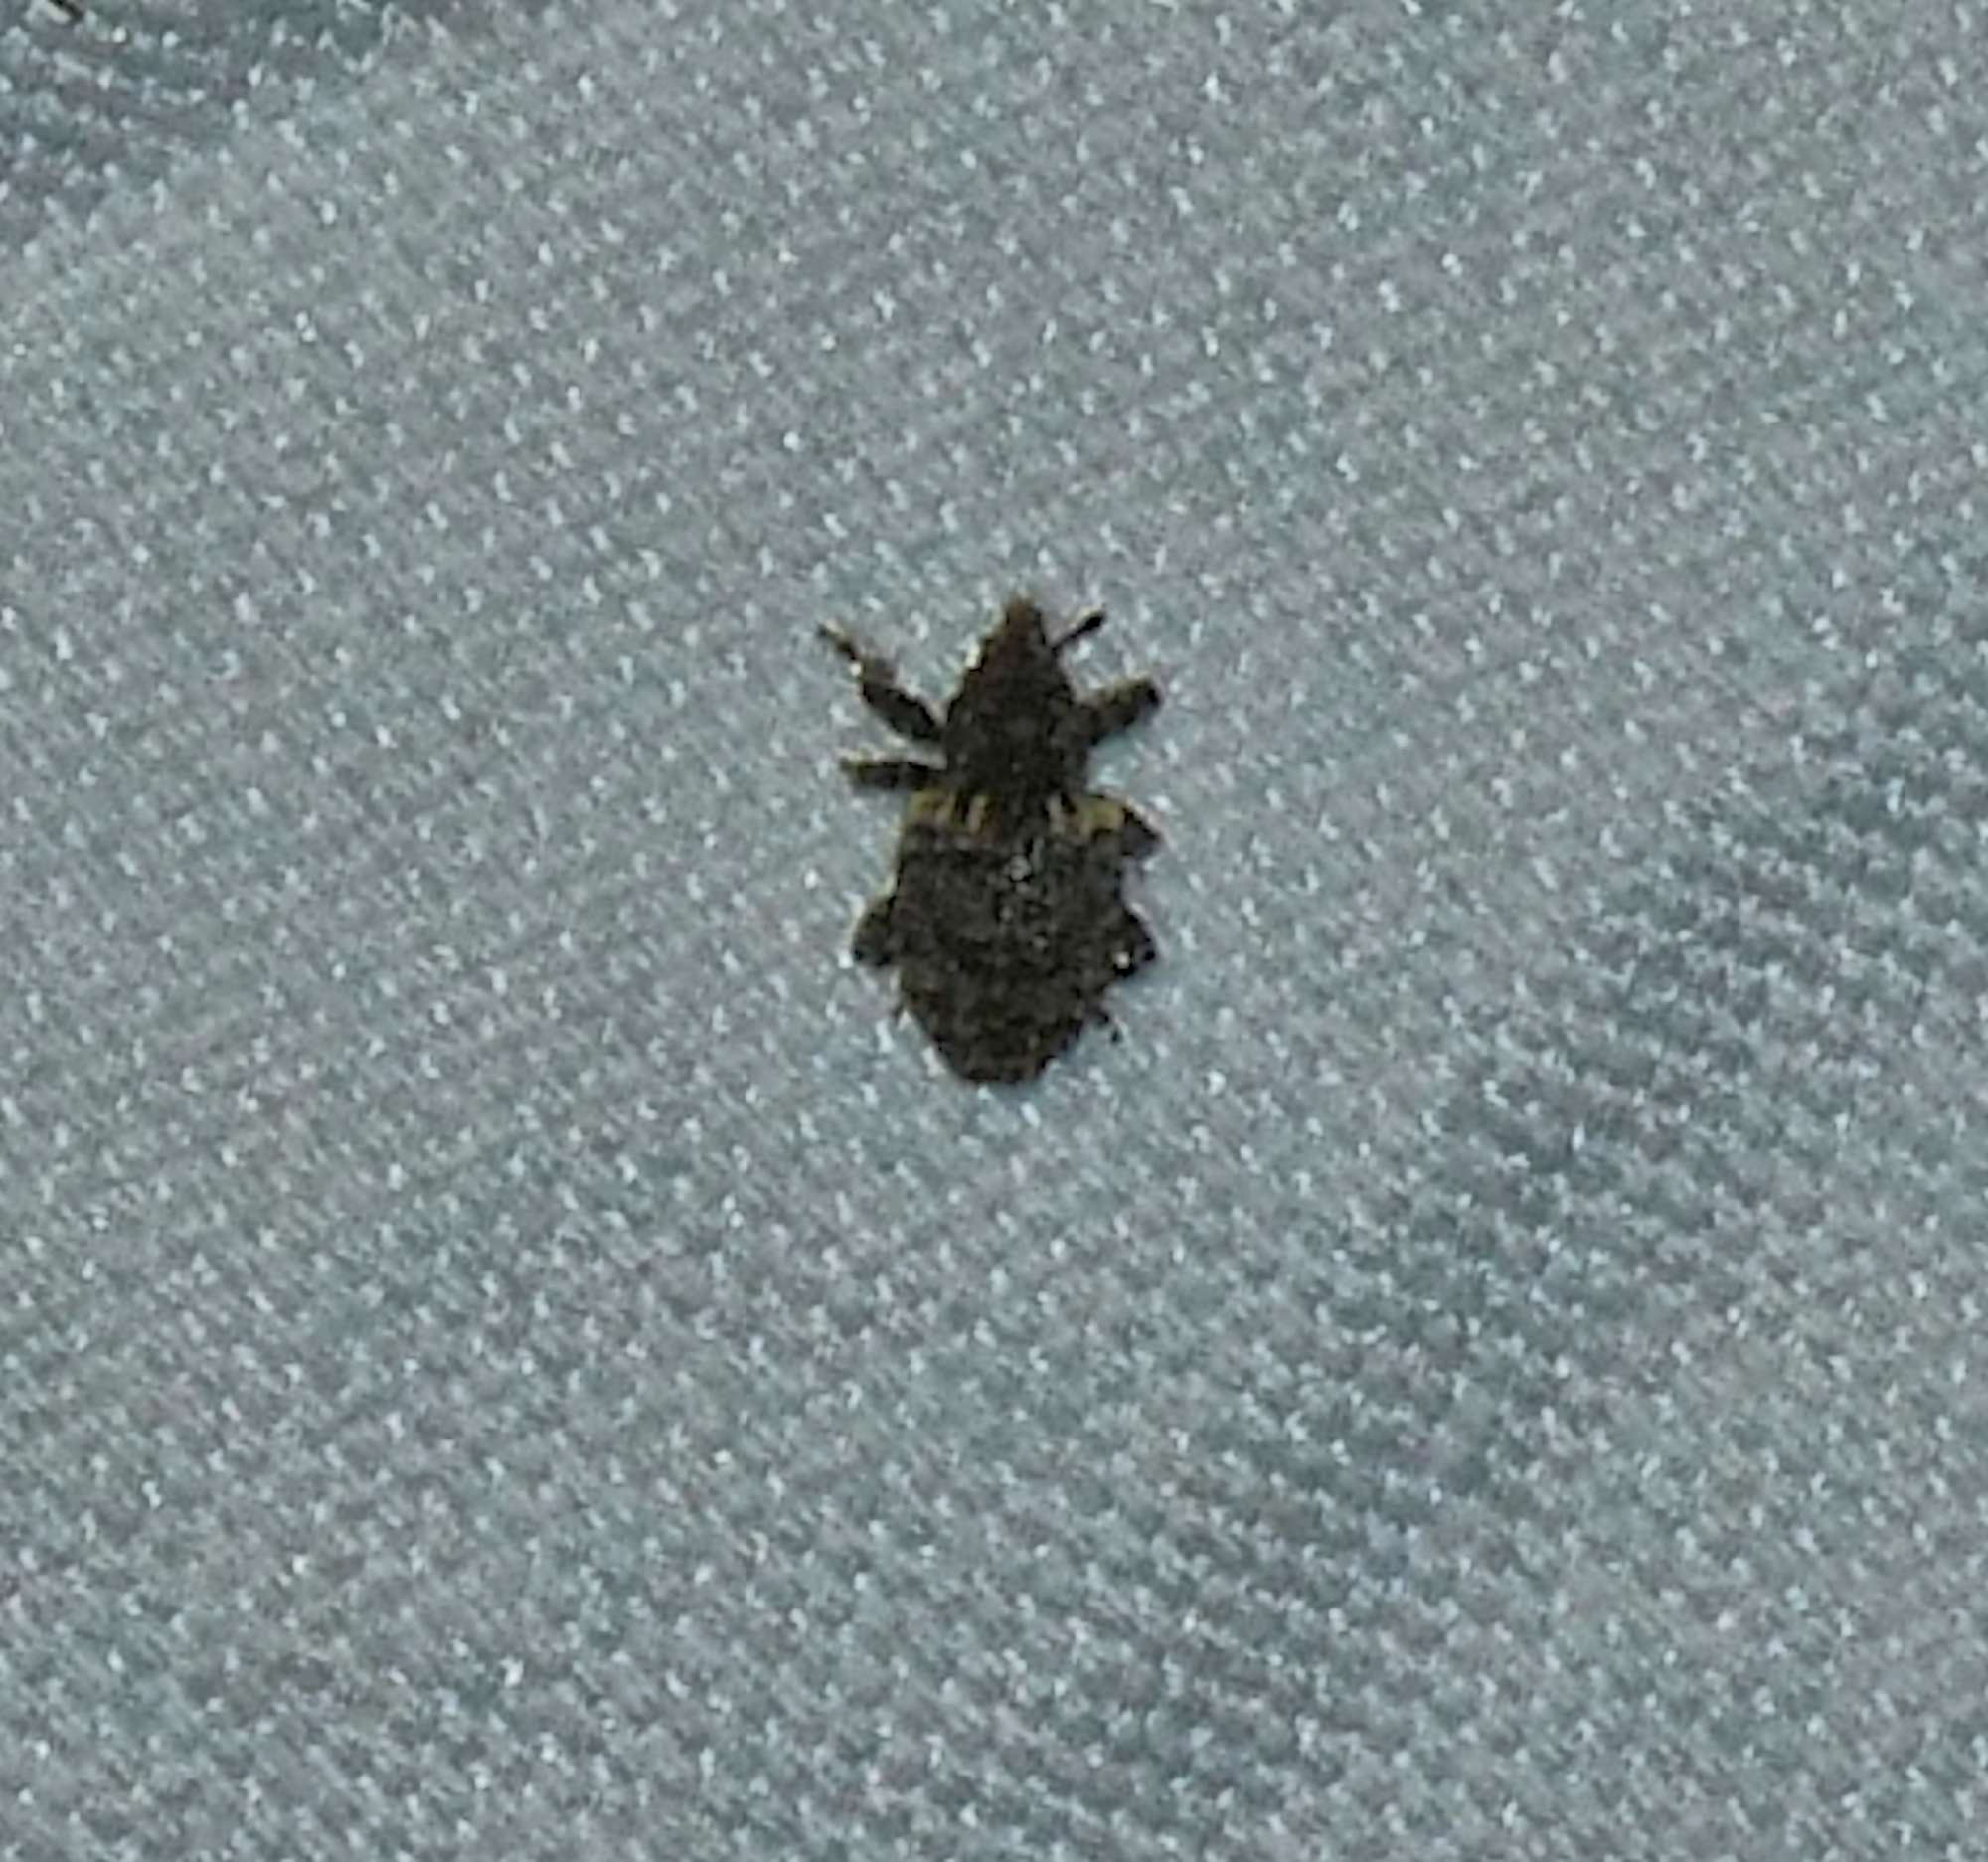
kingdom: Animalia
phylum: Arthropoda
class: Insecta
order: Coleoptera
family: Curculionidae
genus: Conotrachelus
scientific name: Conotrachelus compositus
